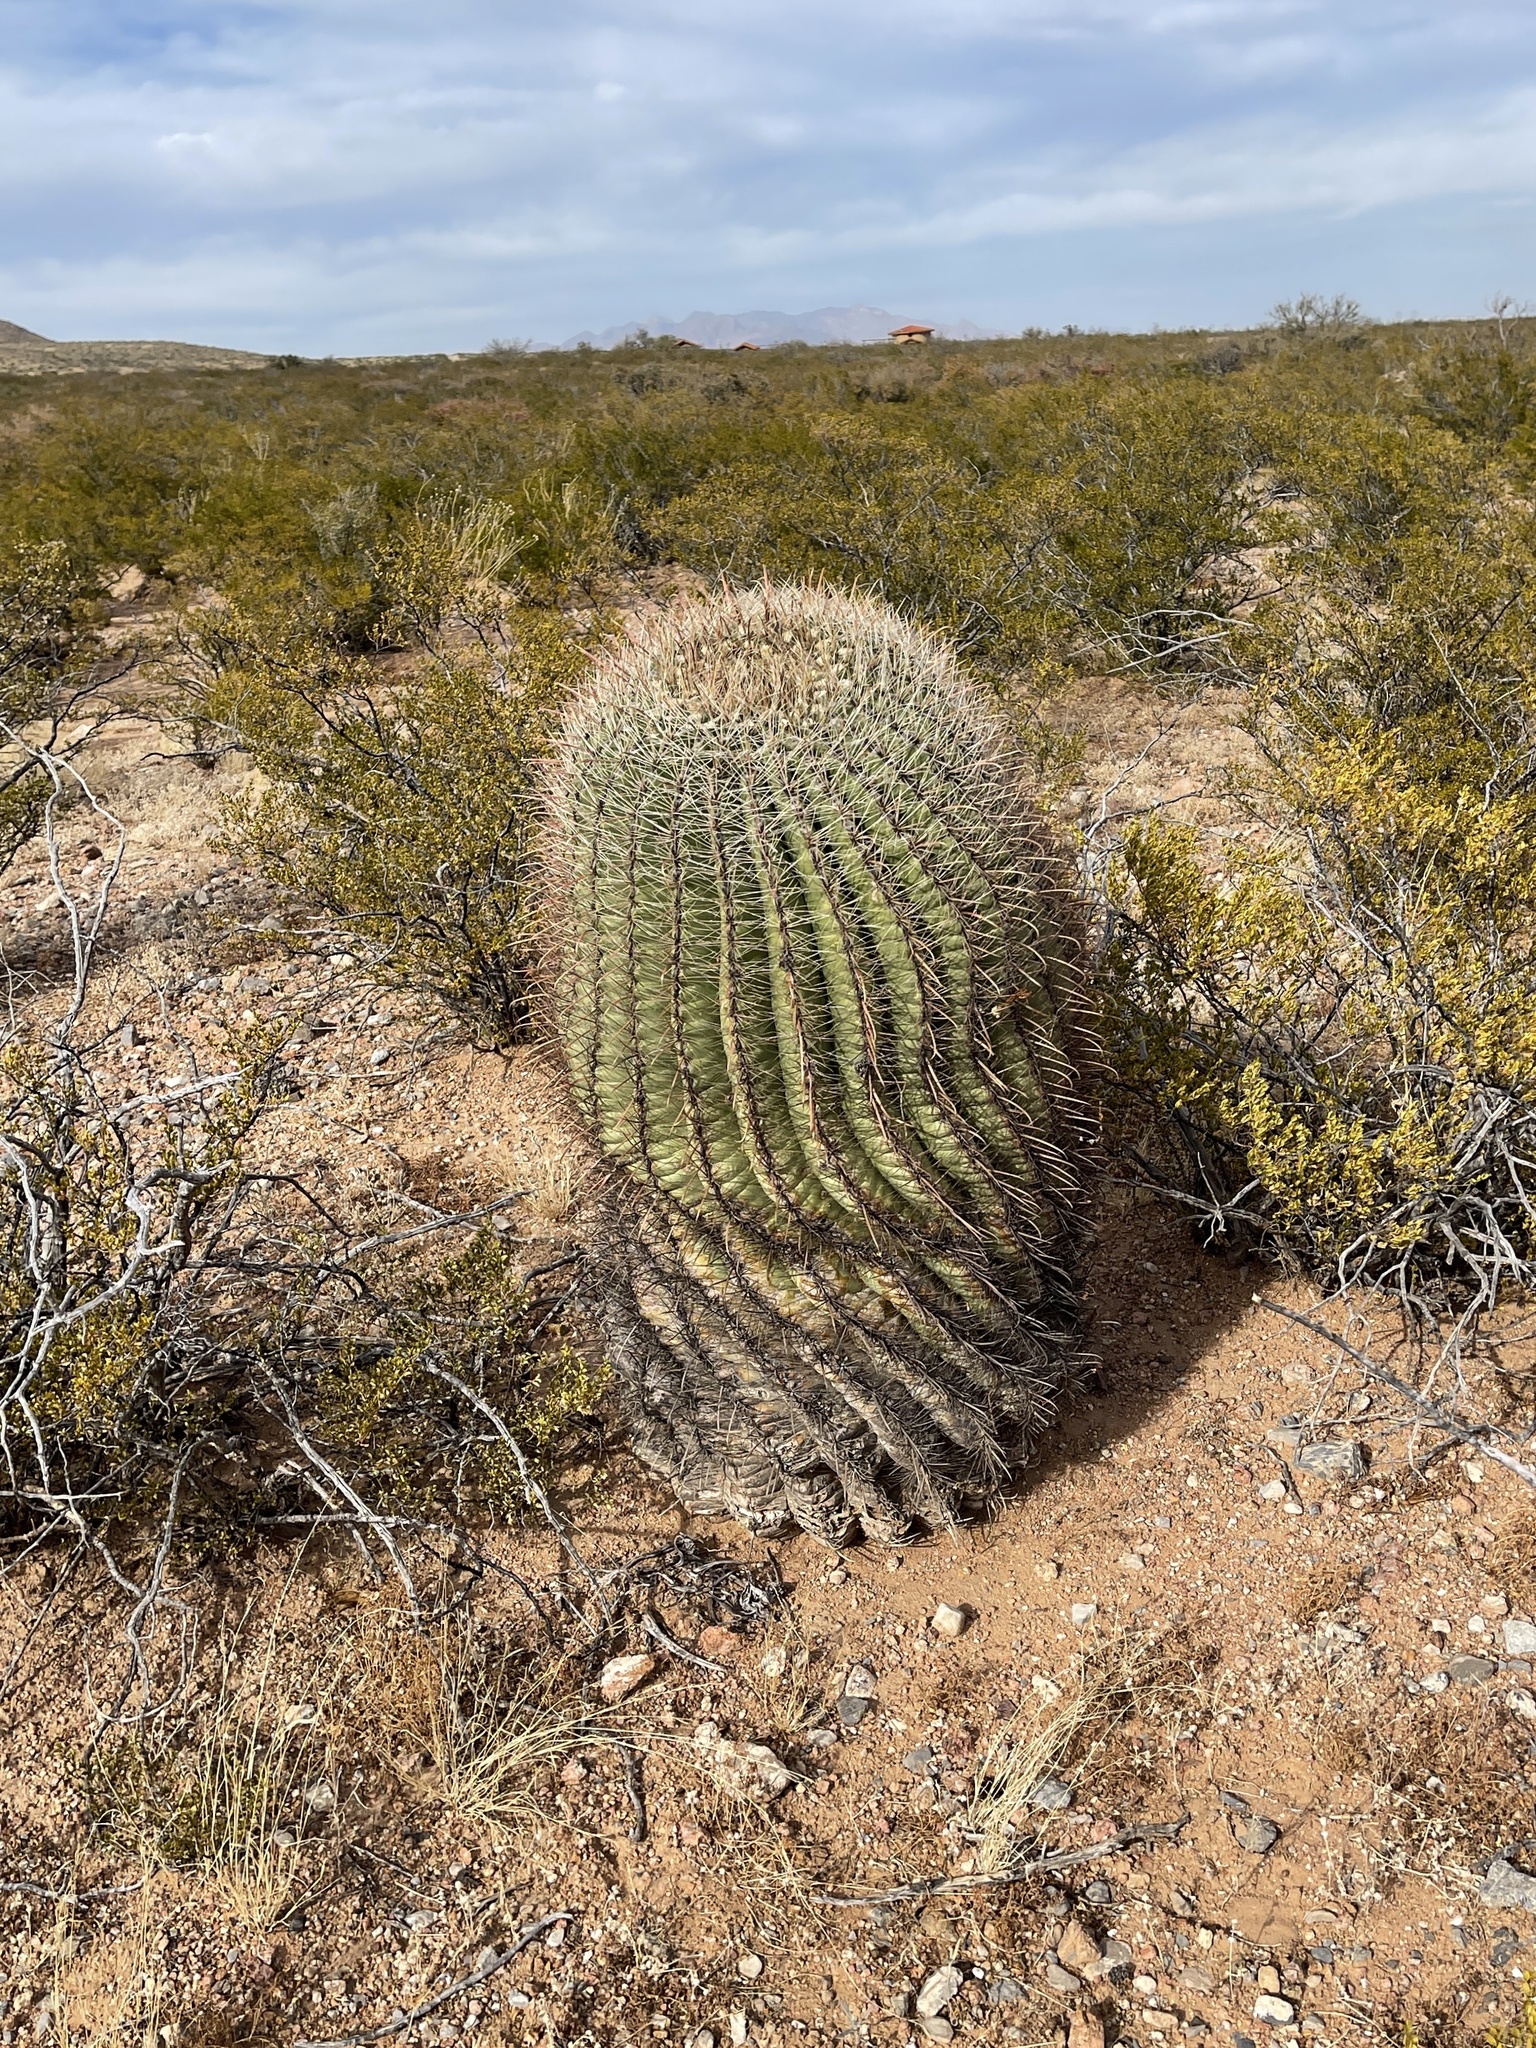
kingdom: Plantae
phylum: Tracheophyta
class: Magnoliopsida
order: Caryophyllales
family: Cactaceae
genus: Ferocactus
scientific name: Ferocactus wislizeni
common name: Candy barrel cactus
